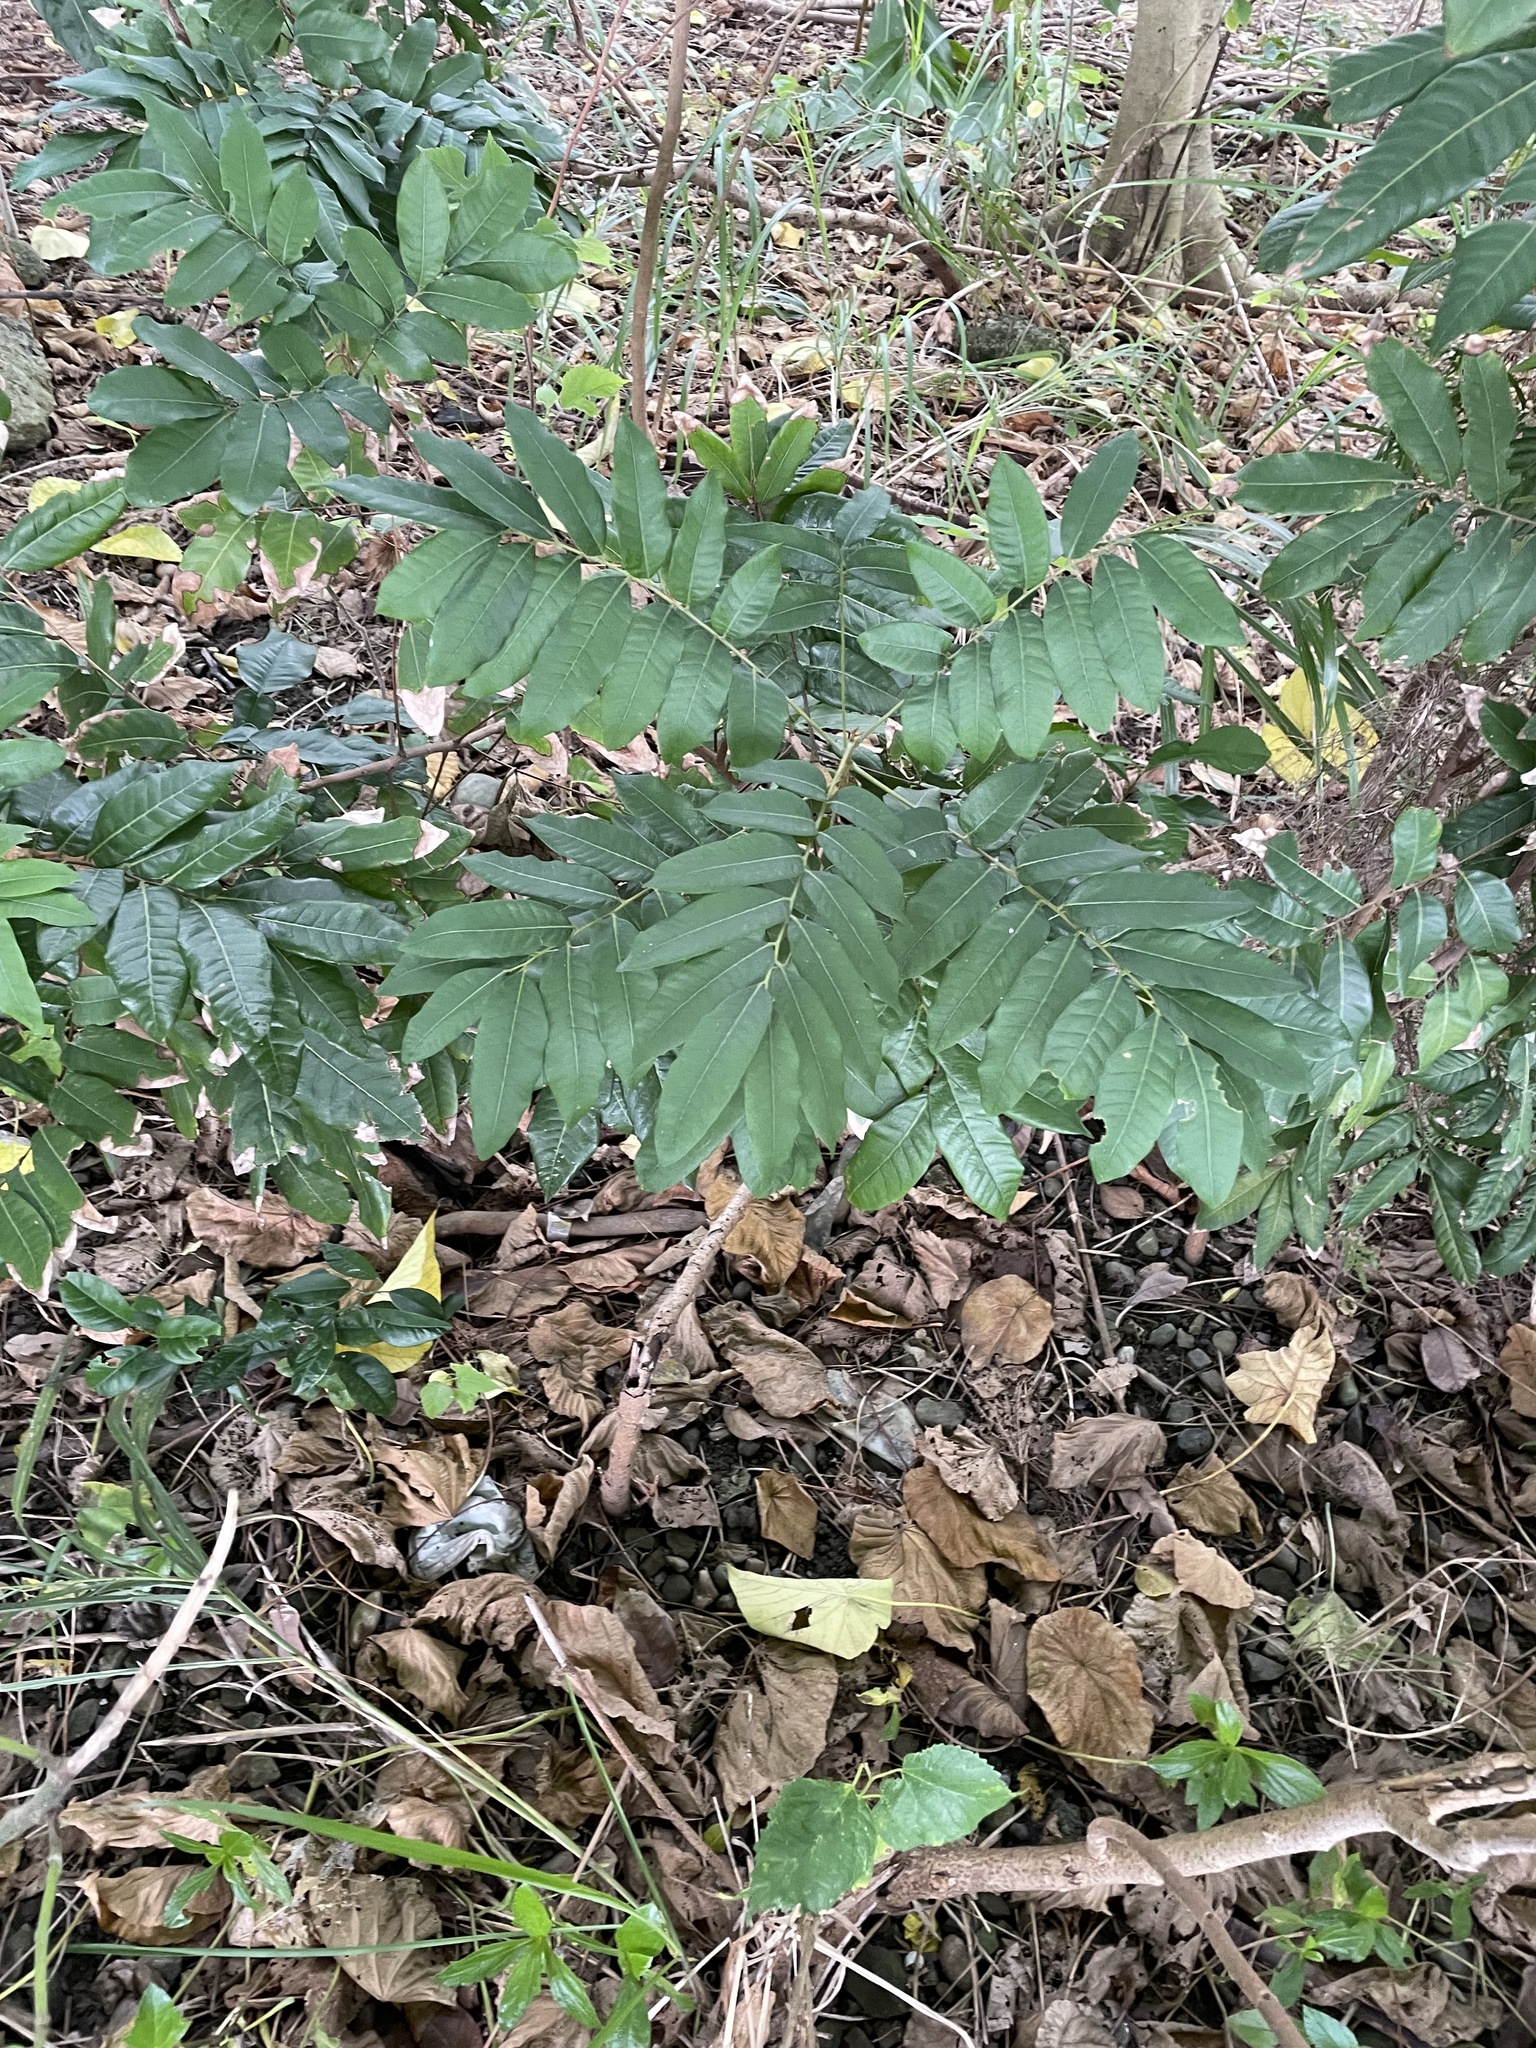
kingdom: Plantae
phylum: Tracheophyta
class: Magnoliopsida
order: Sapindales
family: Sapindaceae
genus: Dimocarpus
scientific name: Dimocarpus longan
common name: Longan
